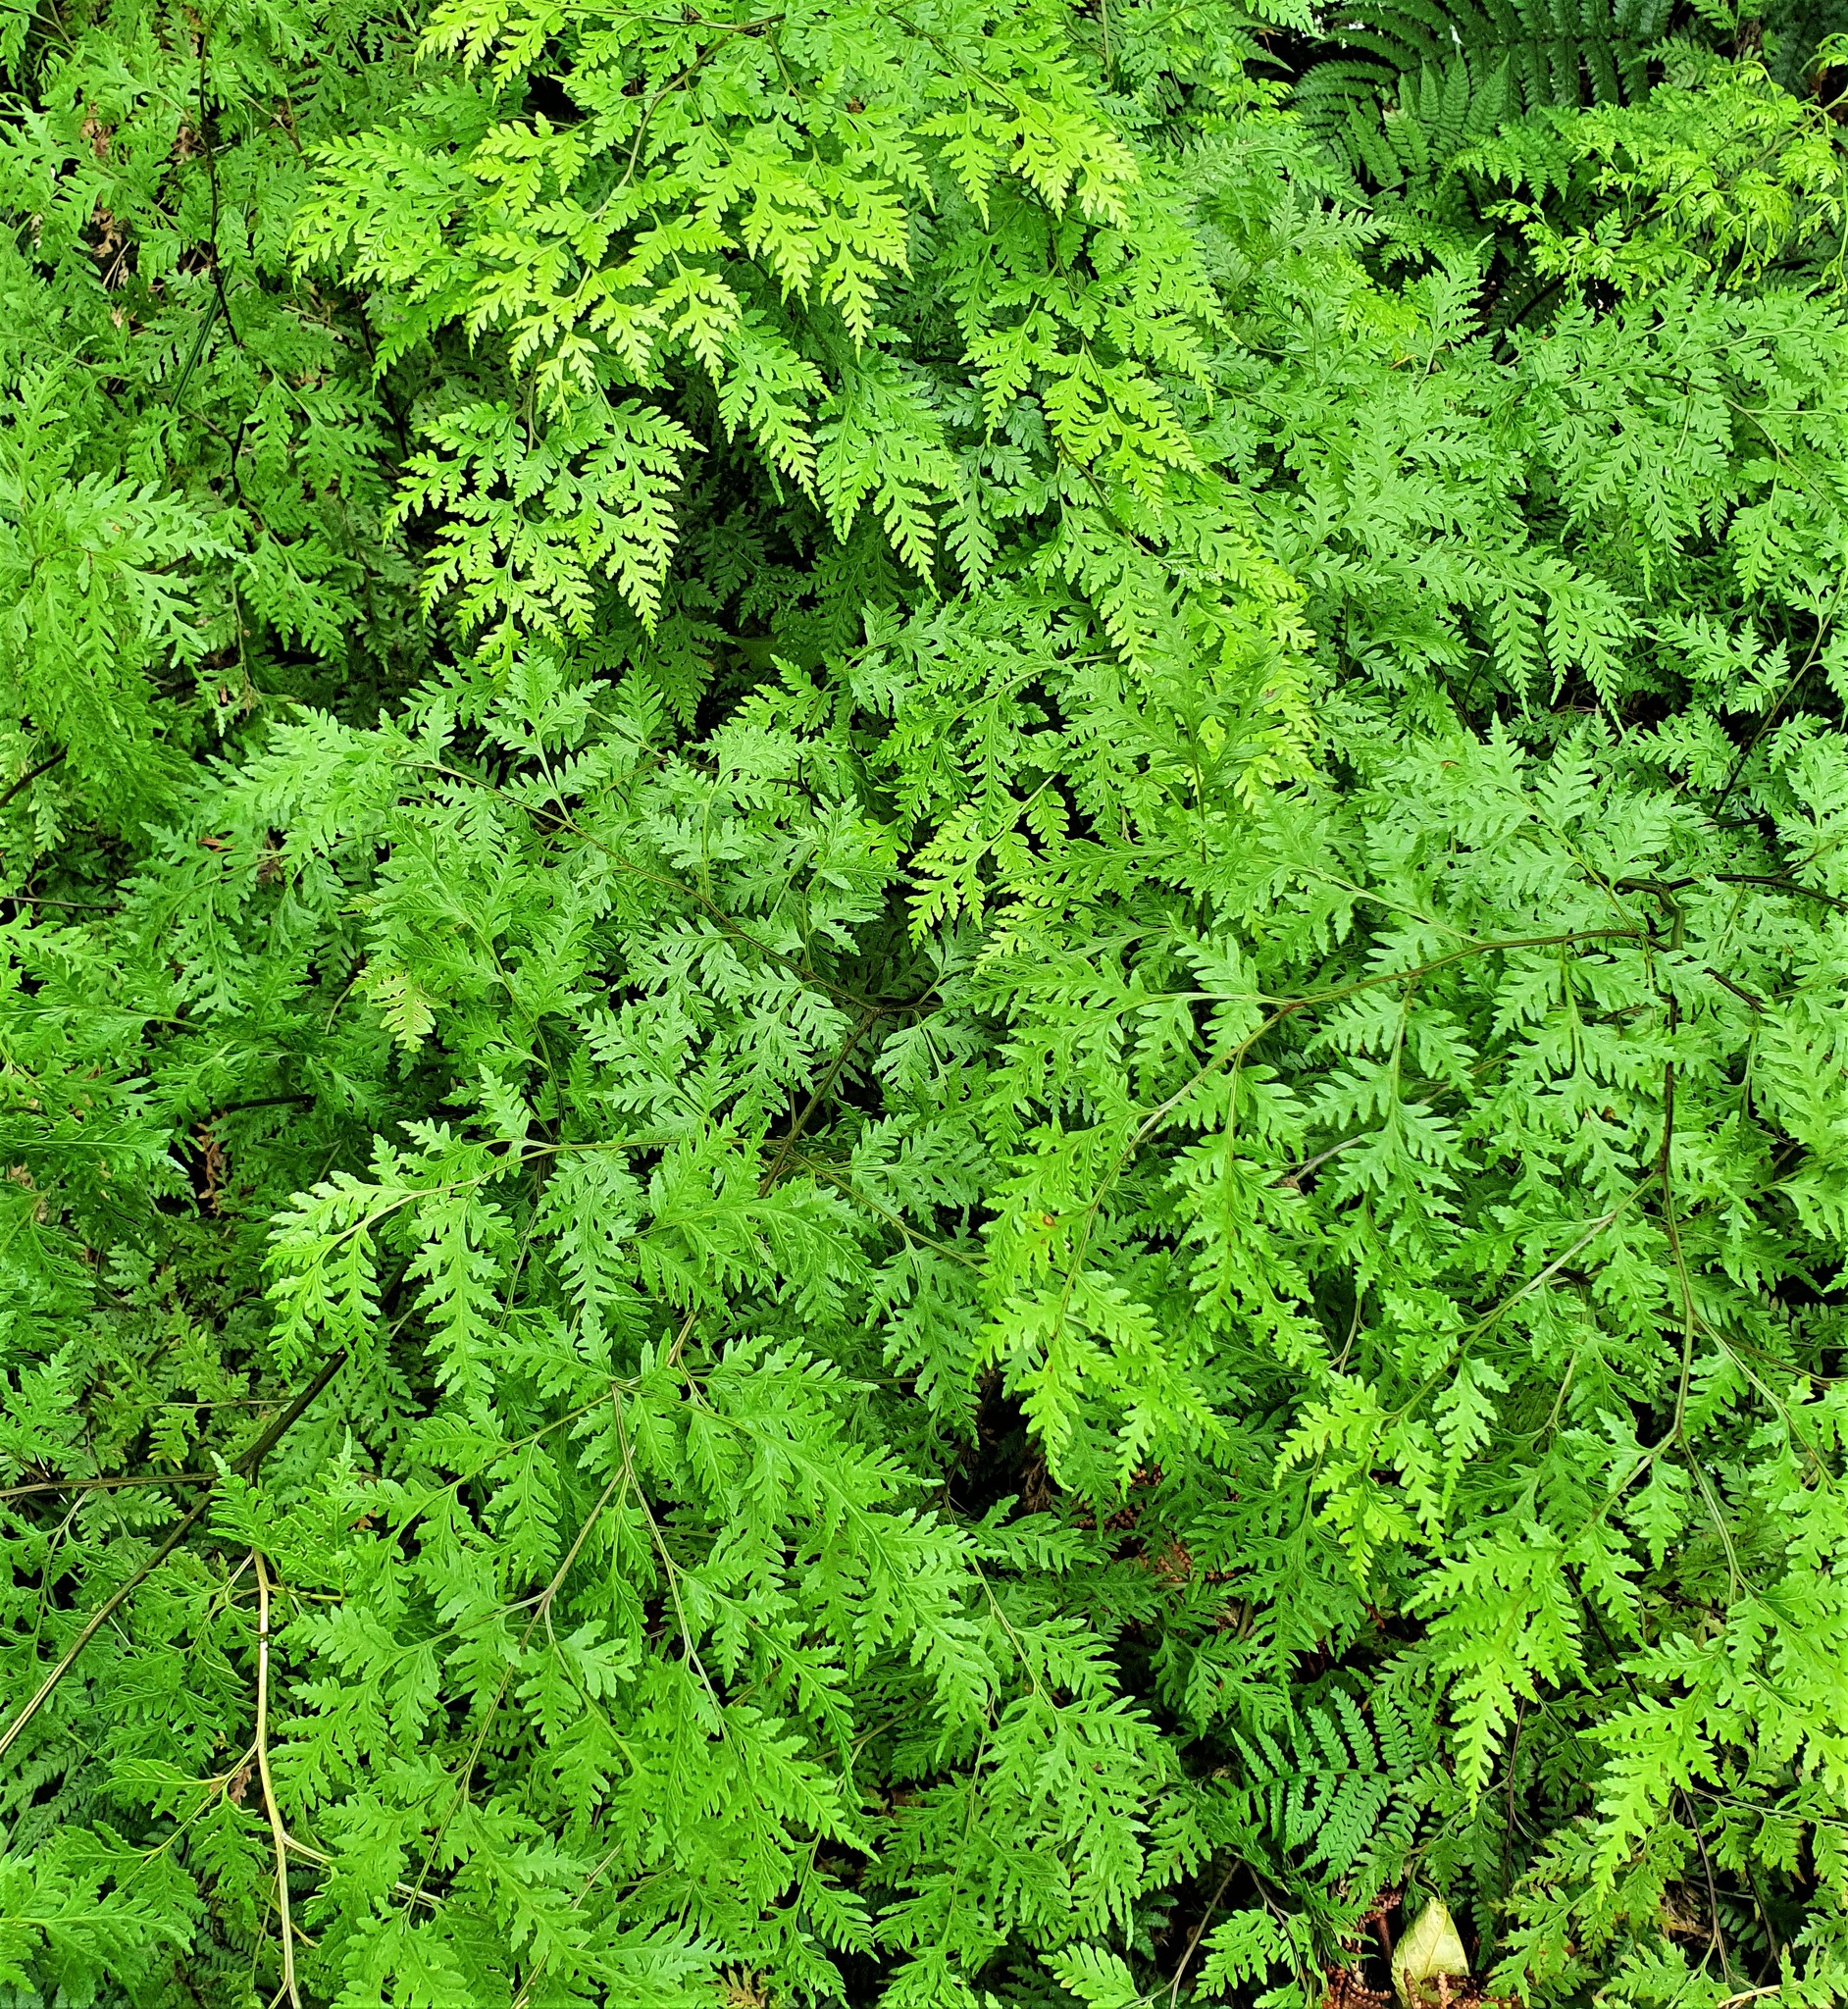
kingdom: Plantae
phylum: Tracheophyta
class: Polypodiopsida
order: Polypodiales
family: Pteridaceae
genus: Pteris
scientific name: Pteris macilenta
